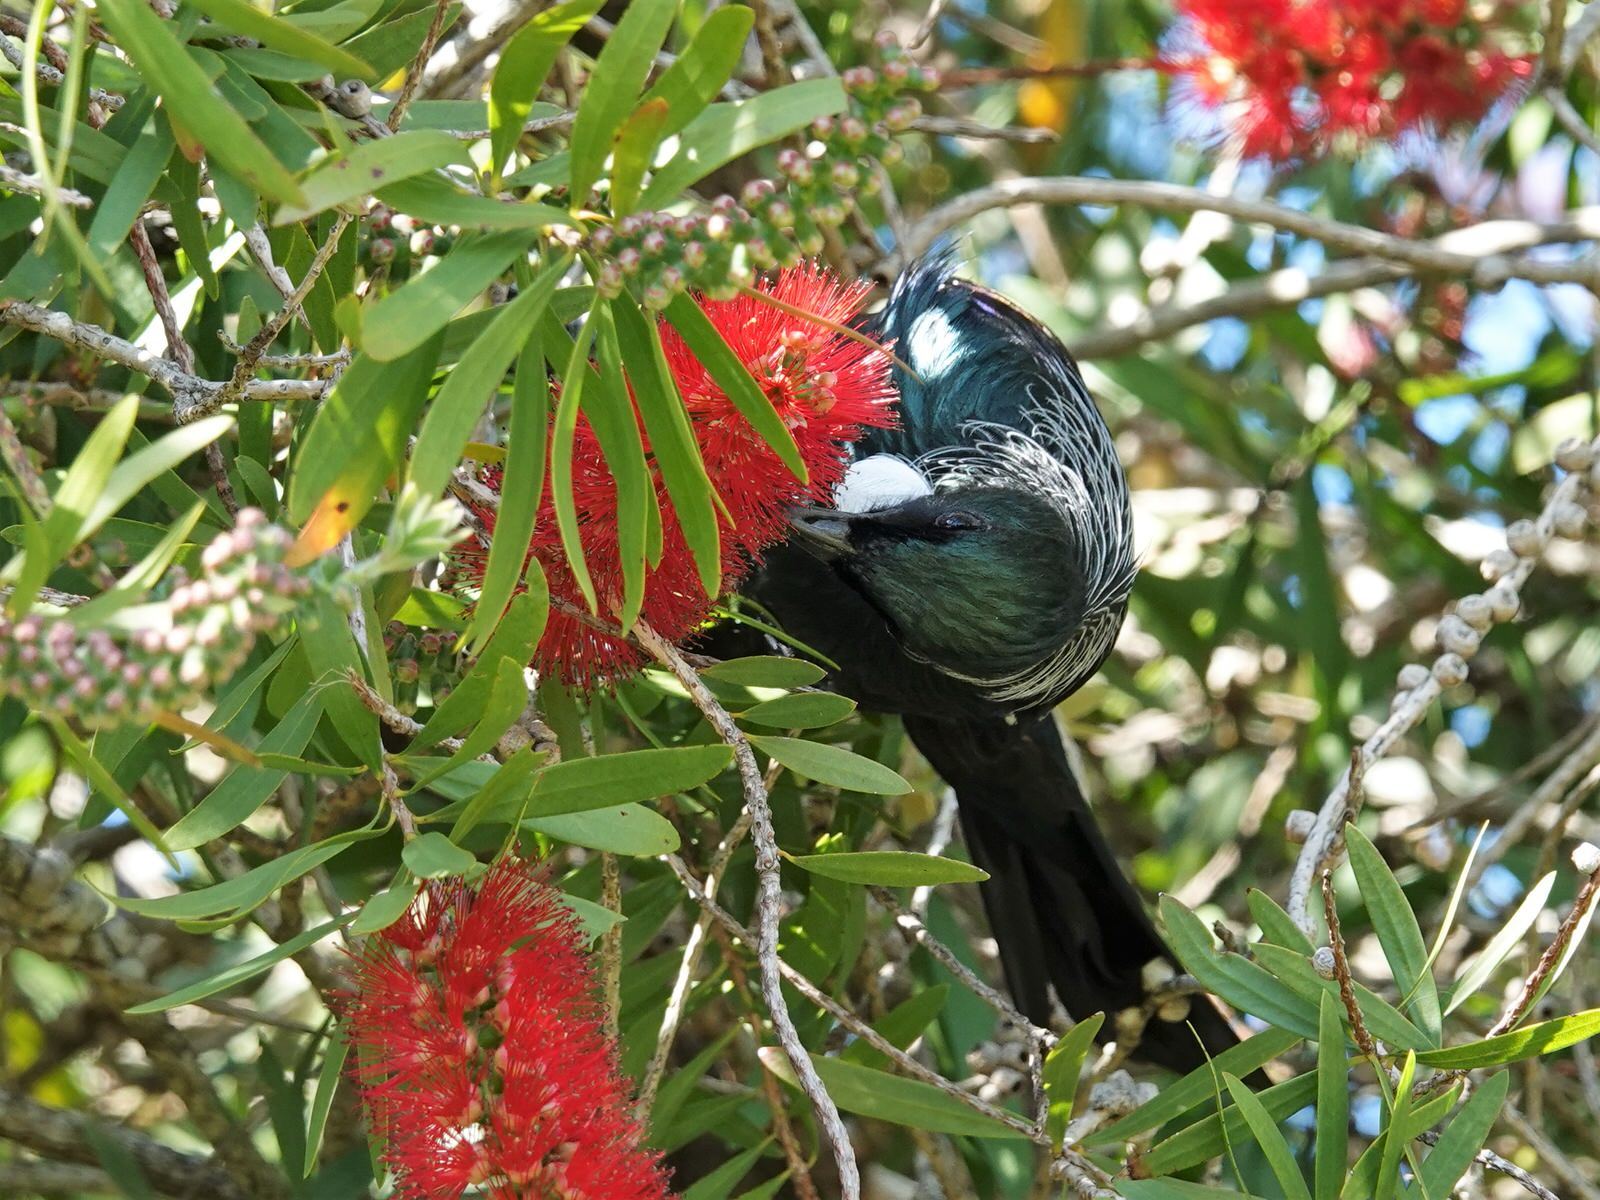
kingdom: Animalia
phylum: Chordata
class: Aves
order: Passeriformes
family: Meliphagidae
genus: Prosthemadera
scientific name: Prosthemadera novaeseelandiae
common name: Tui
